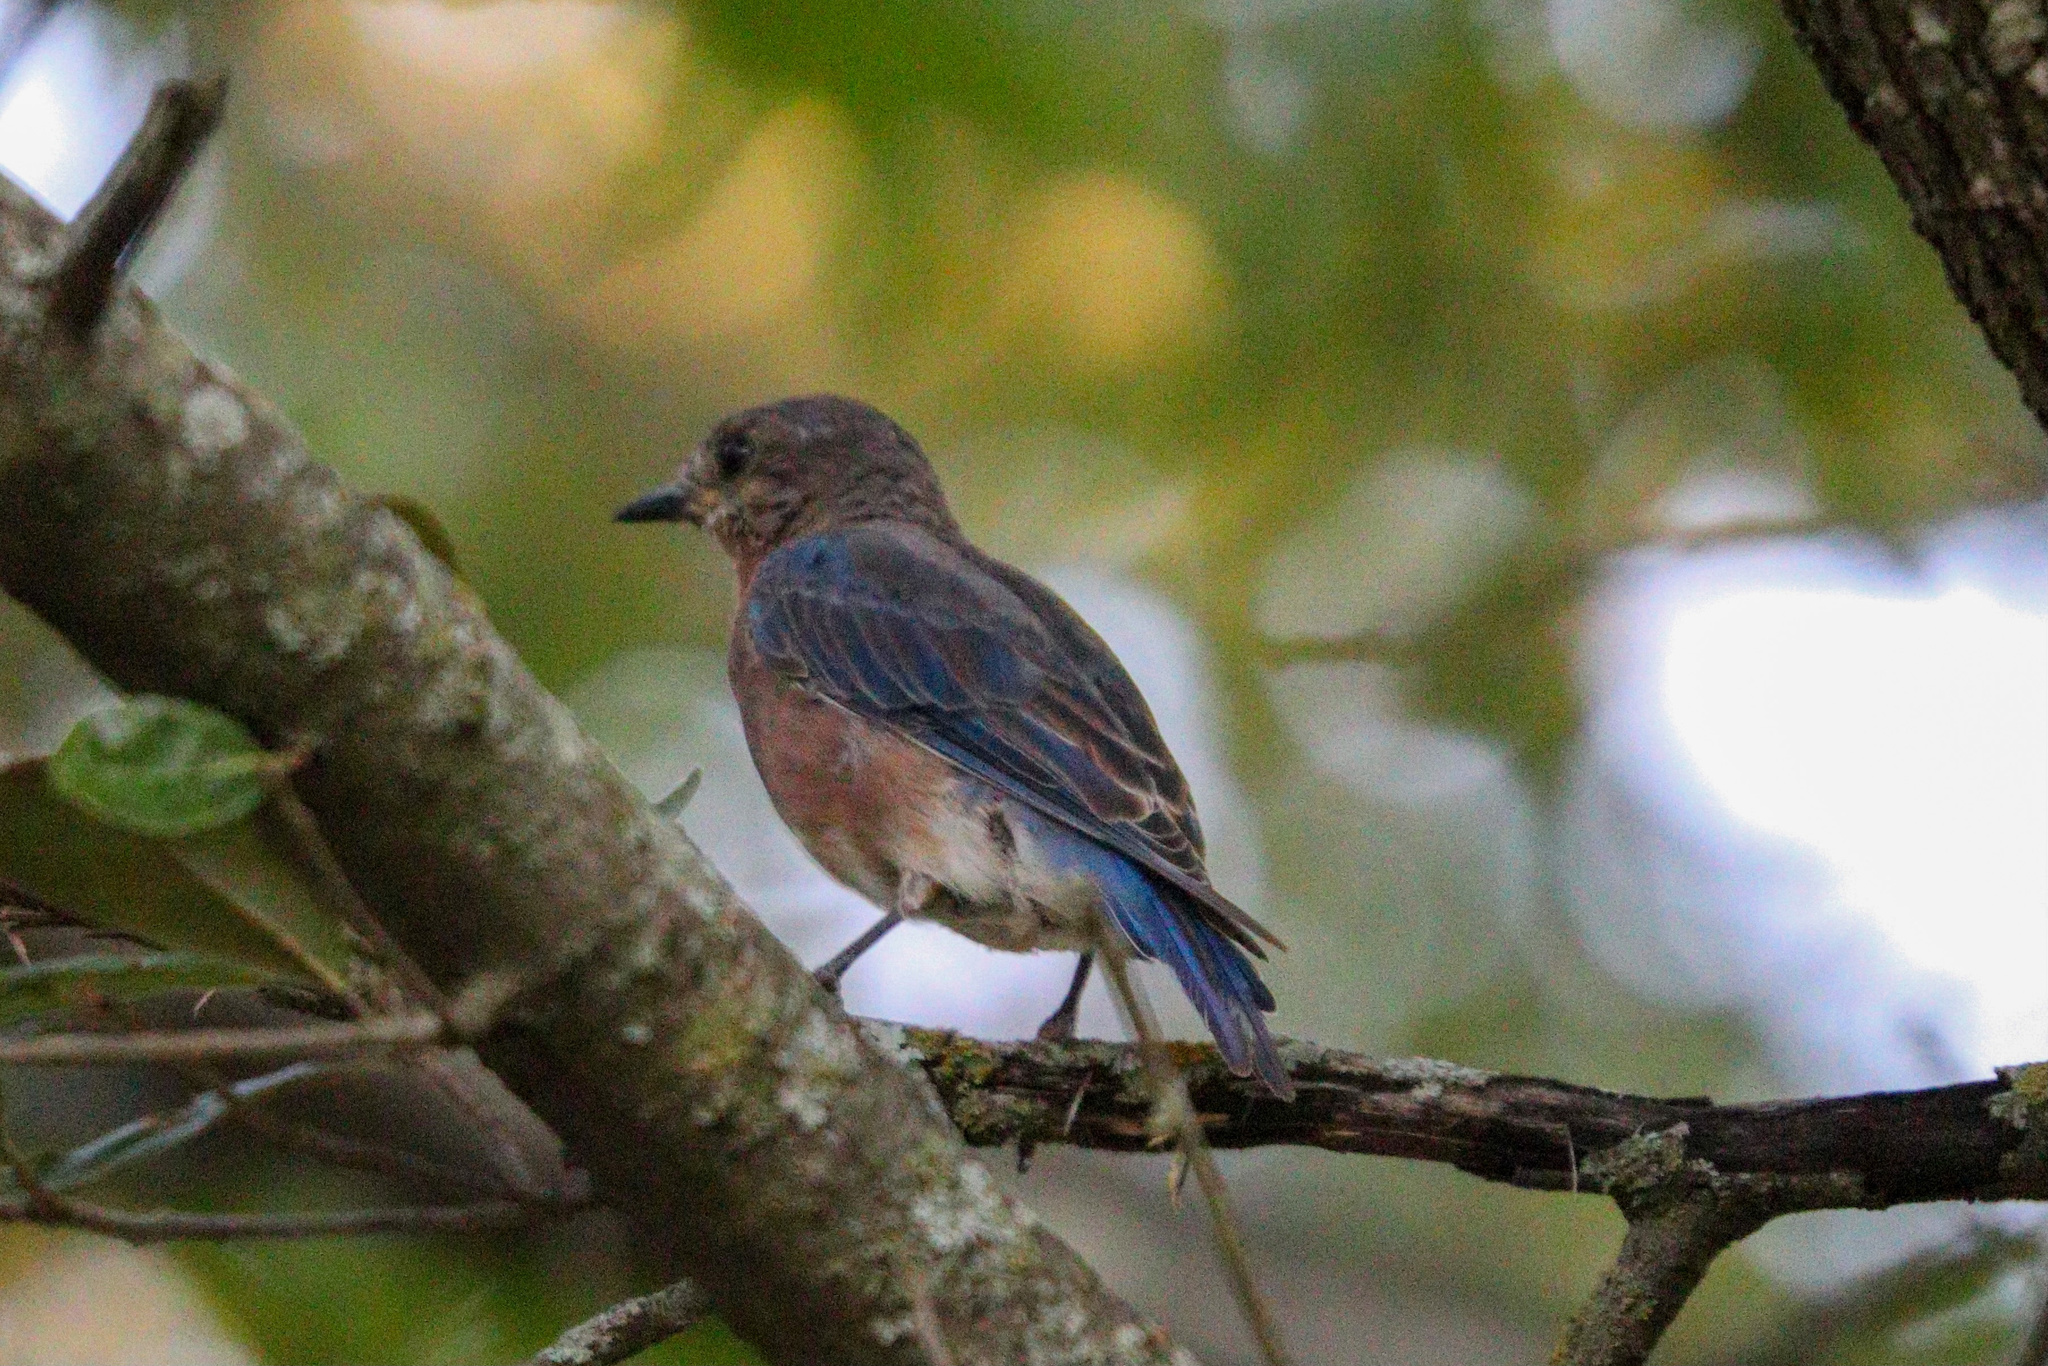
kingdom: Animalia
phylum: Chordata
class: Aves
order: Passeriformes
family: Turdidae
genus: Sialia
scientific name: Sialia sialis
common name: Eastern bluebird
